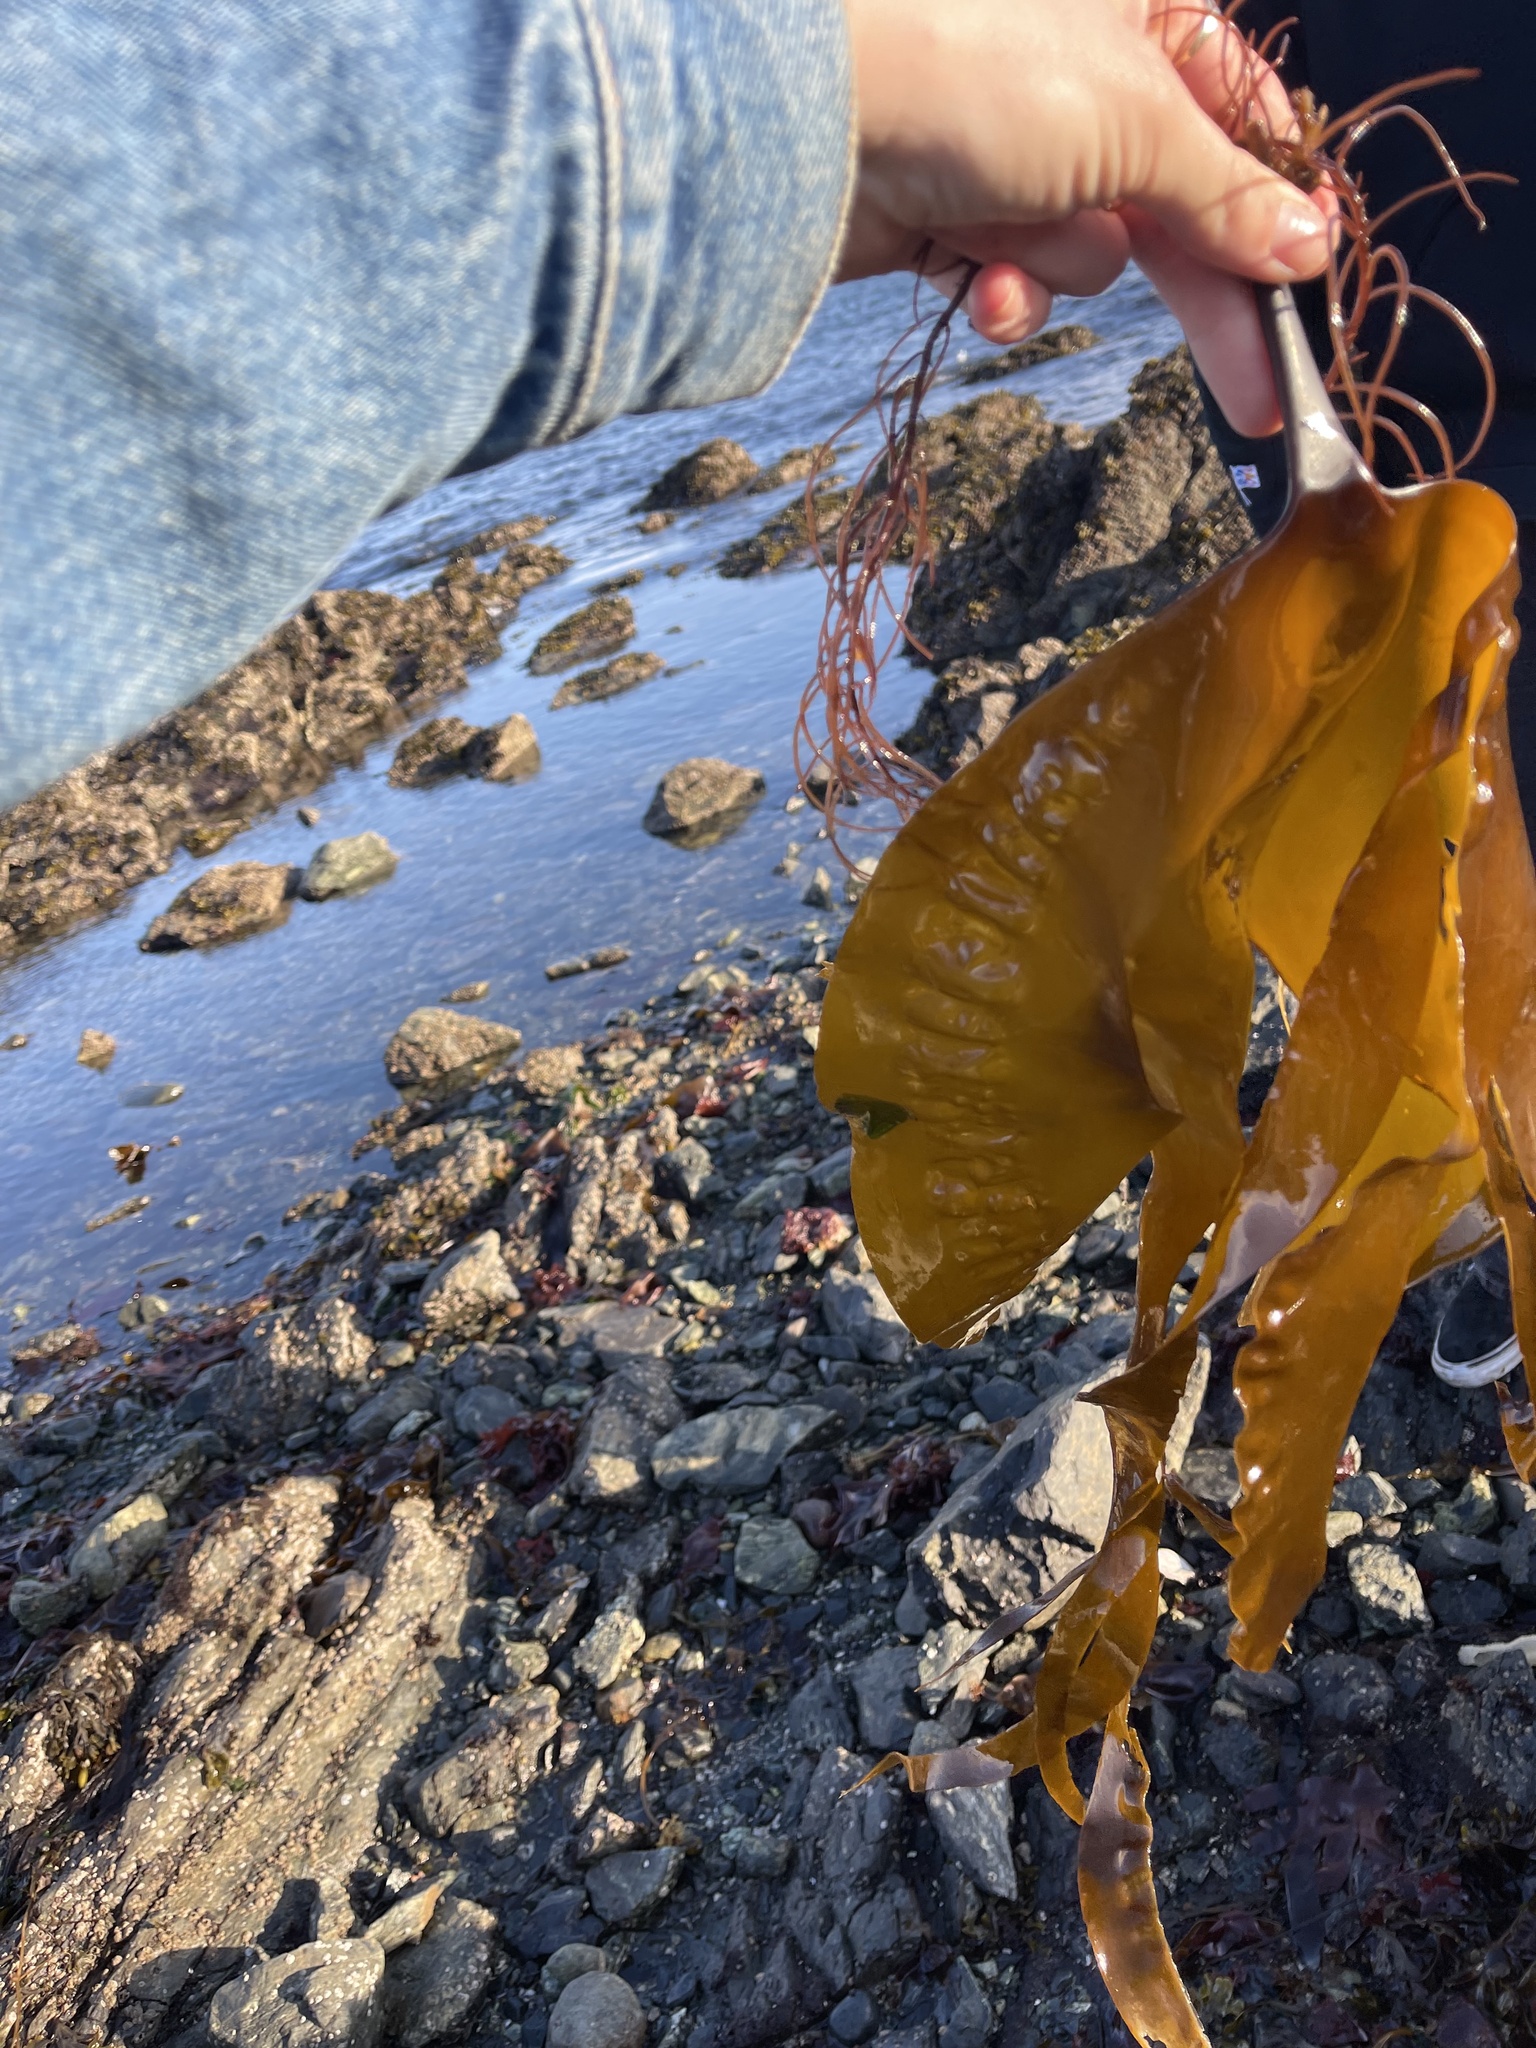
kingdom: Chromista
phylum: Ochrophyta
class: Phaeophyceae
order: Laminariales
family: Laminariaceae
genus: Hedophyllum
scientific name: Hedophyllum nigripes
